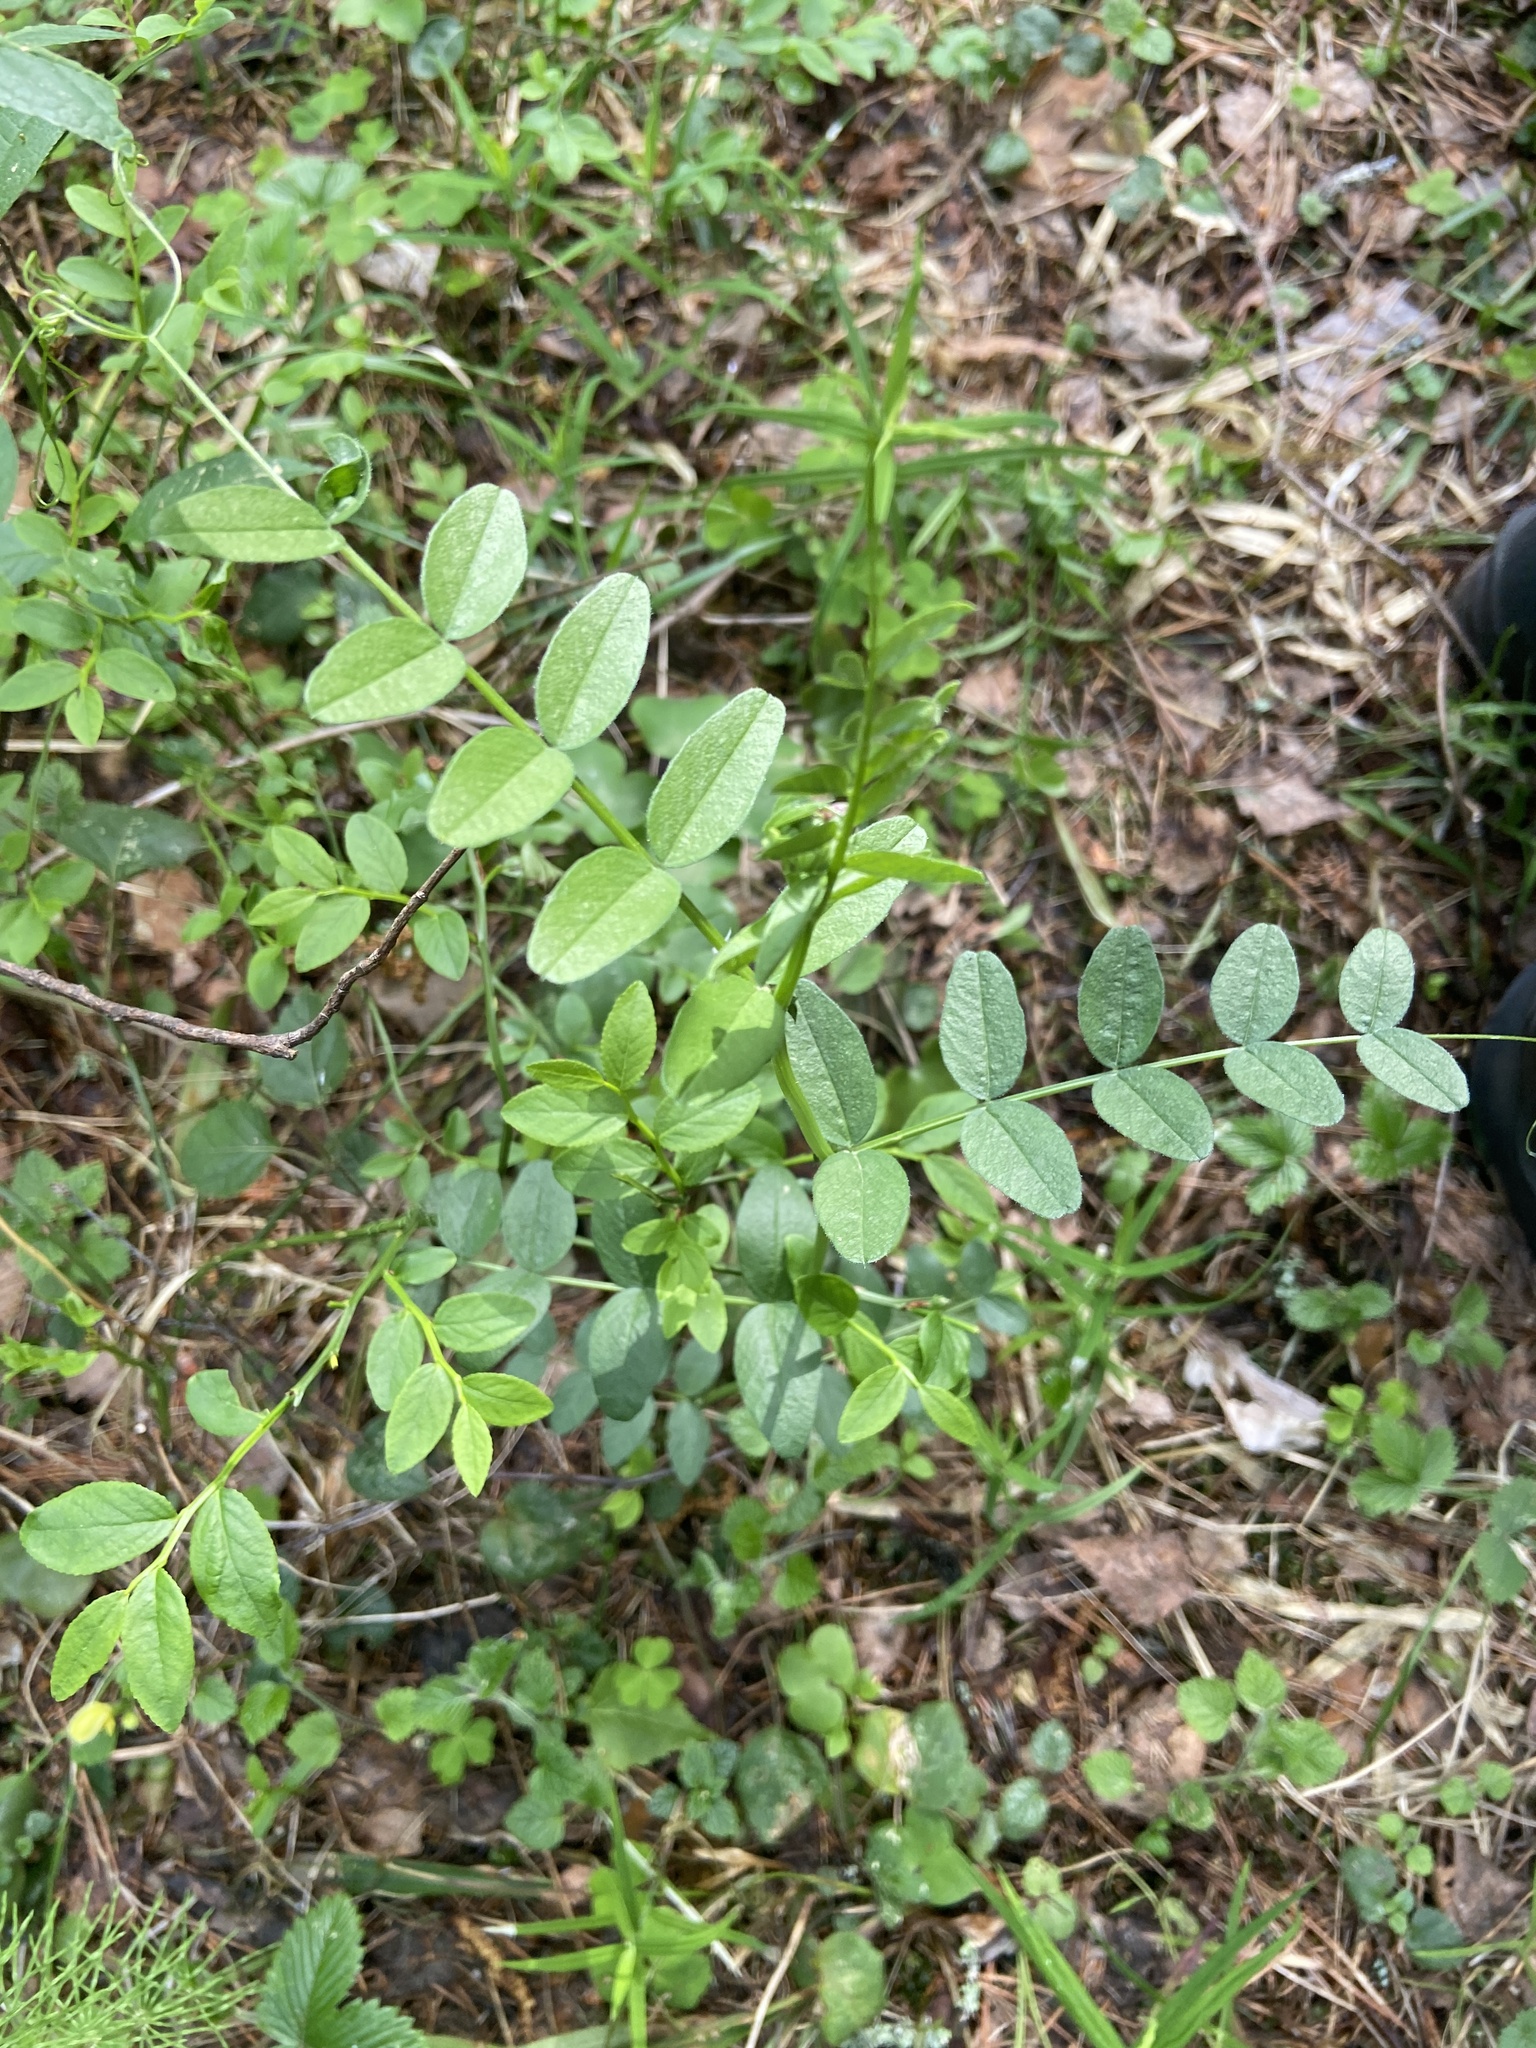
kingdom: Plantae
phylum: Tracheophyta
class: Magnoliopsida
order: Fabales
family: Fabaceae
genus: Vicia
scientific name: Vicia sepium
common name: Bush vetch
